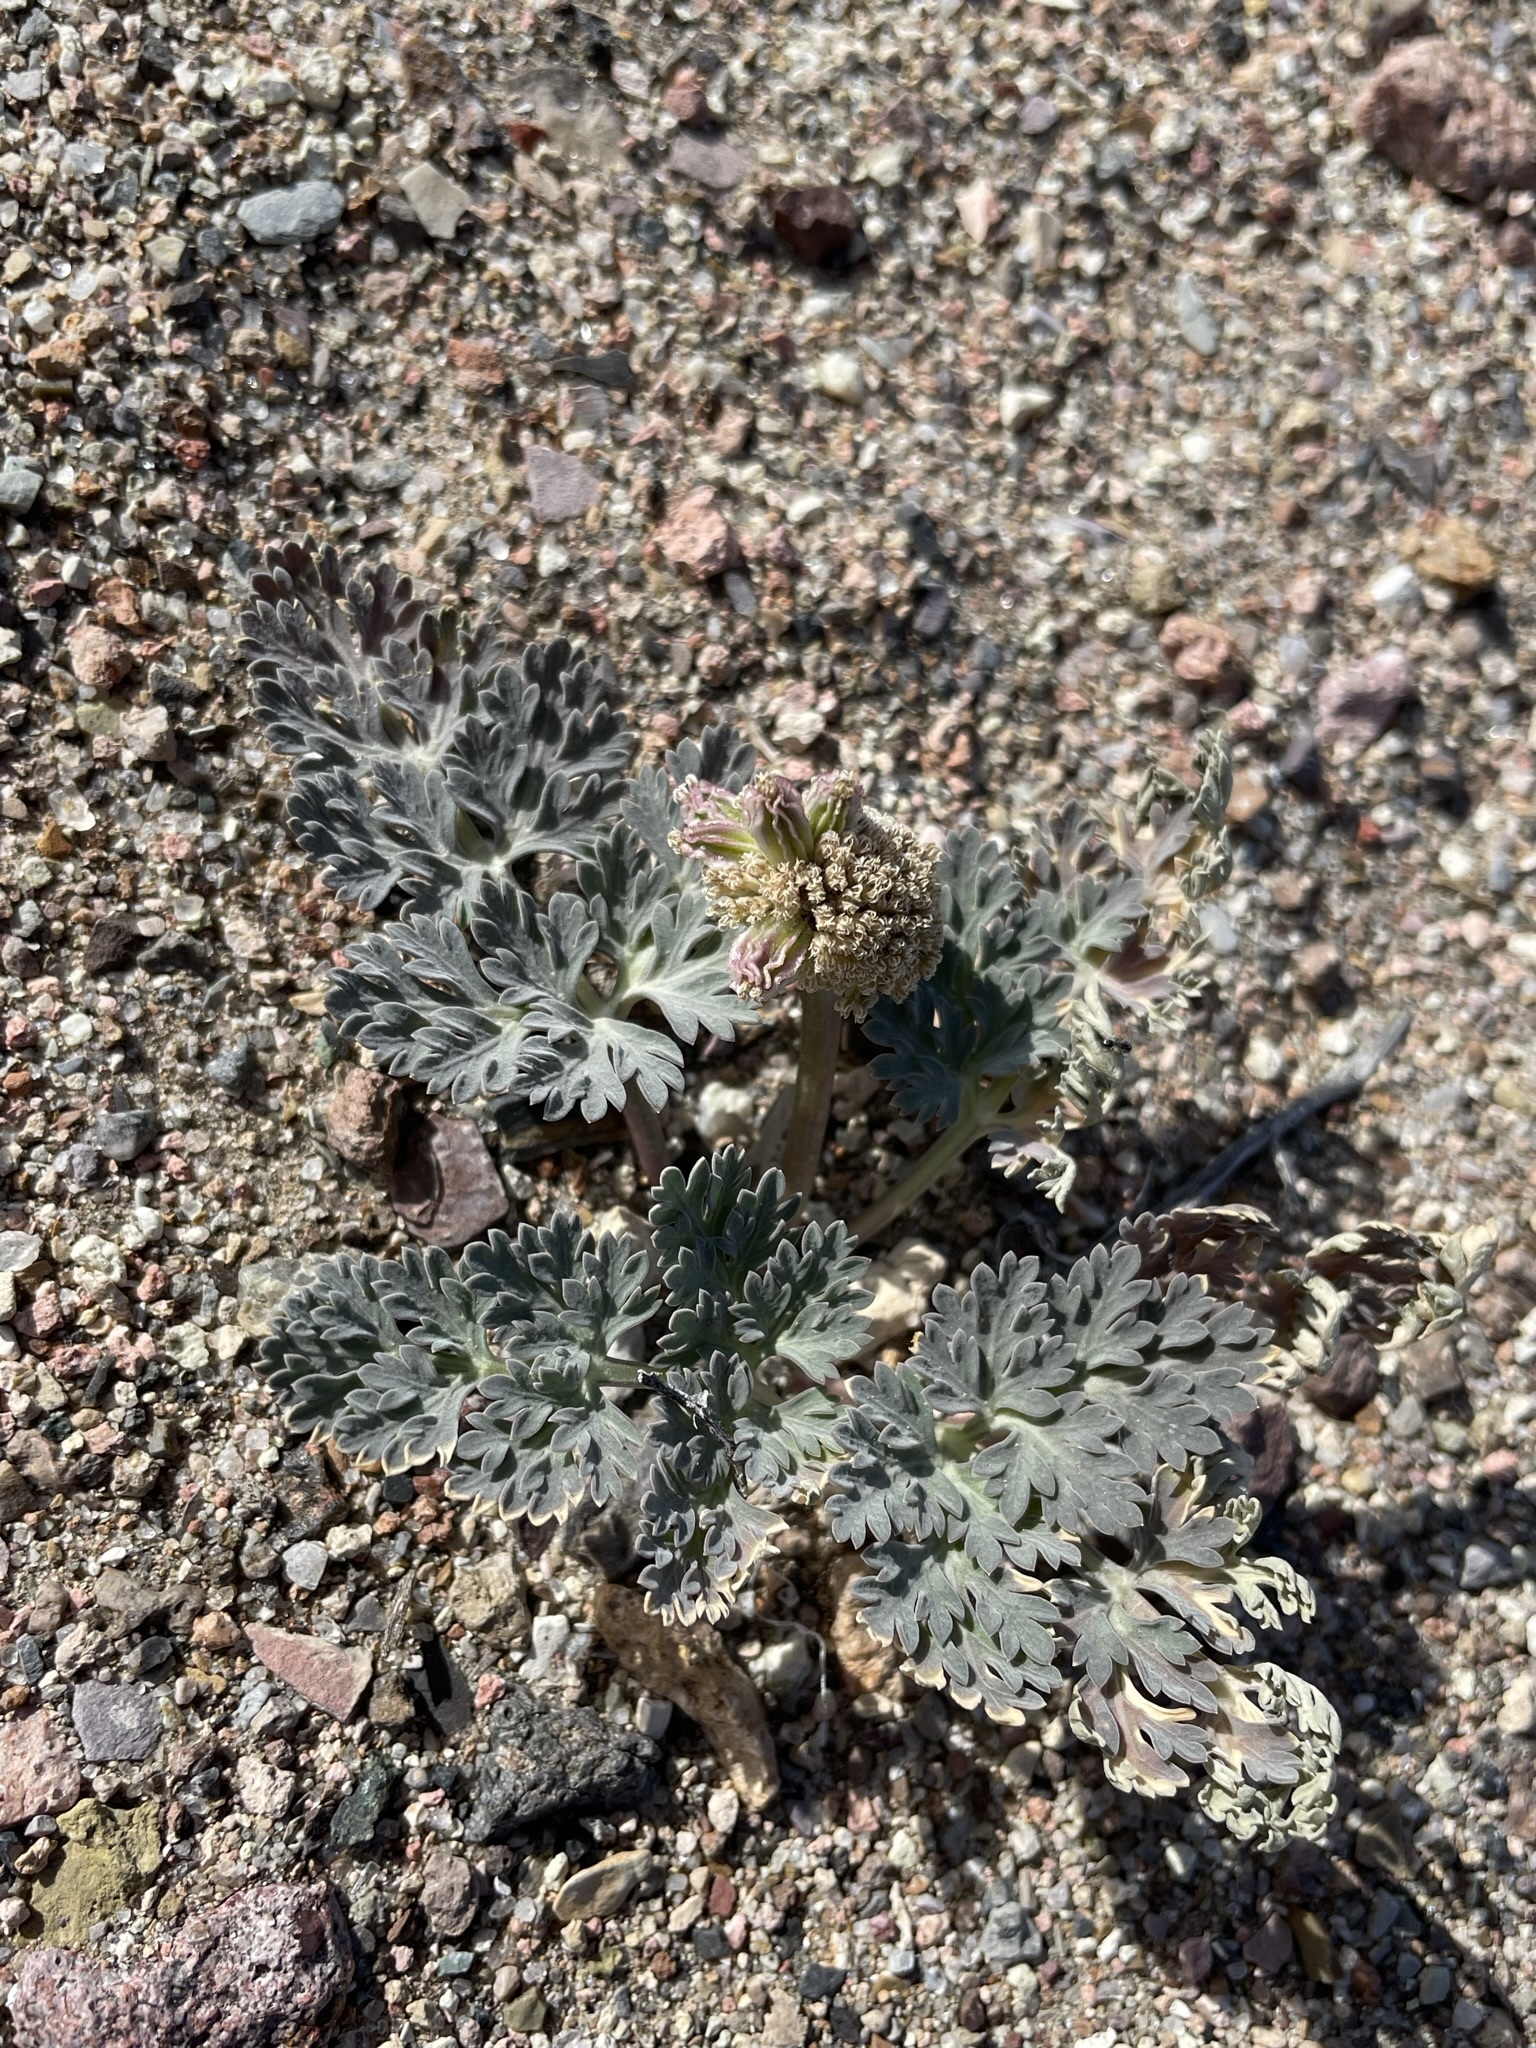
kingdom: Plantae
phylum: Tracheophyta
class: Magnoliopsida
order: Apiales
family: Apiaceae
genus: Cymopterus
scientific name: Cymopterus globosus
